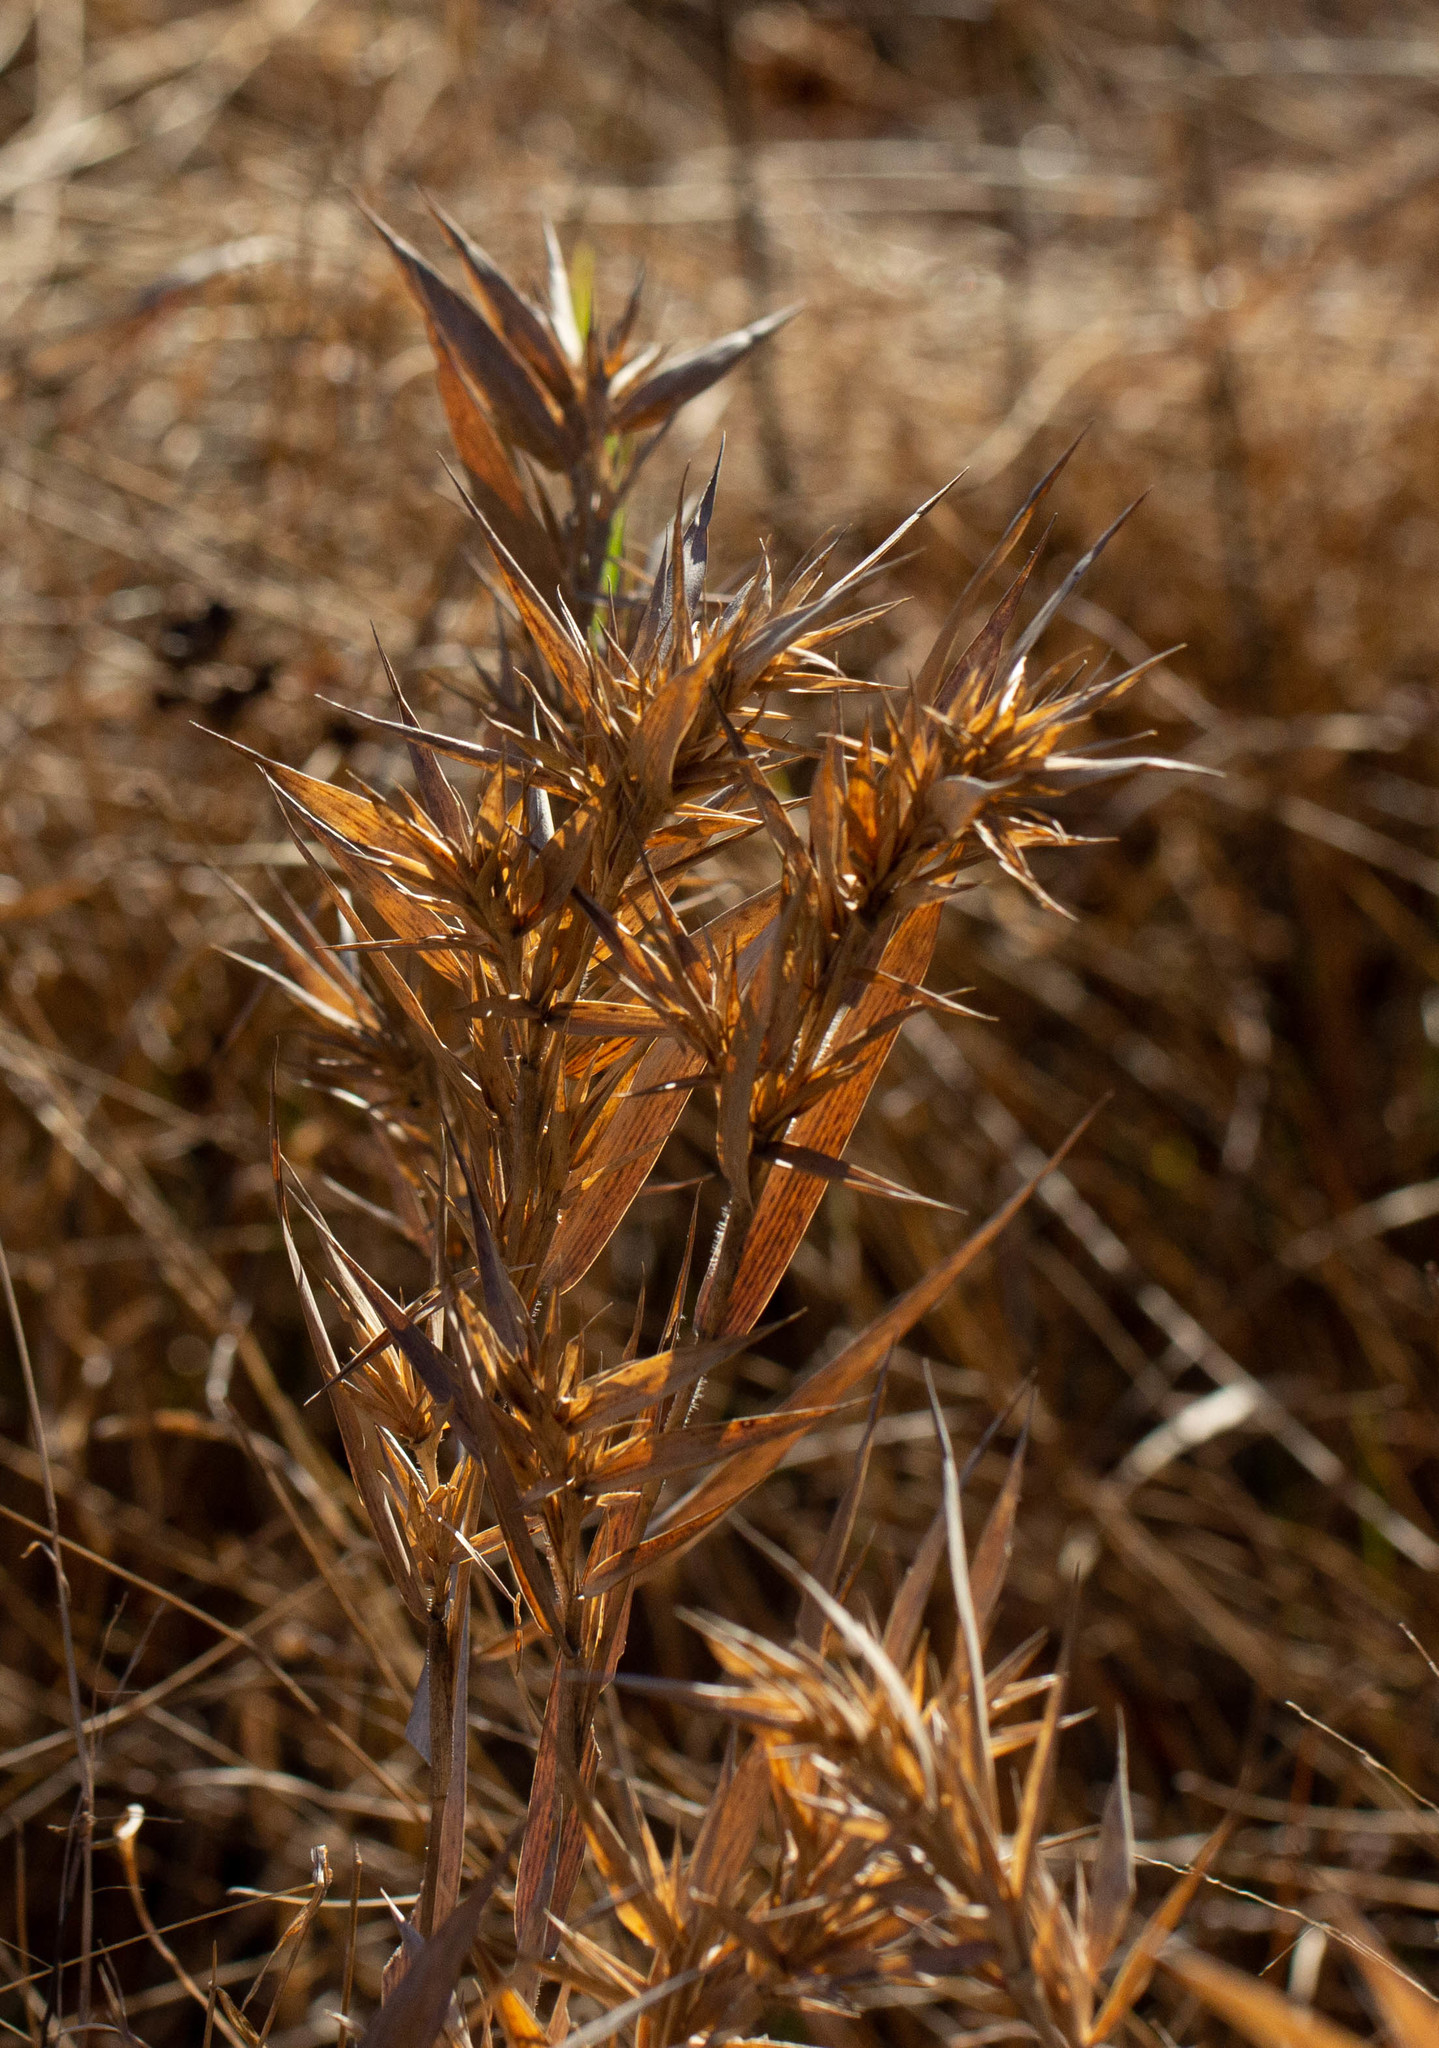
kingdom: Plantae
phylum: Tracheophyta
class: Liliopsida
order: Poales
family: Poaceae
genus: Dichanthelium
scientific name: Dichanthelium scabriusculum
